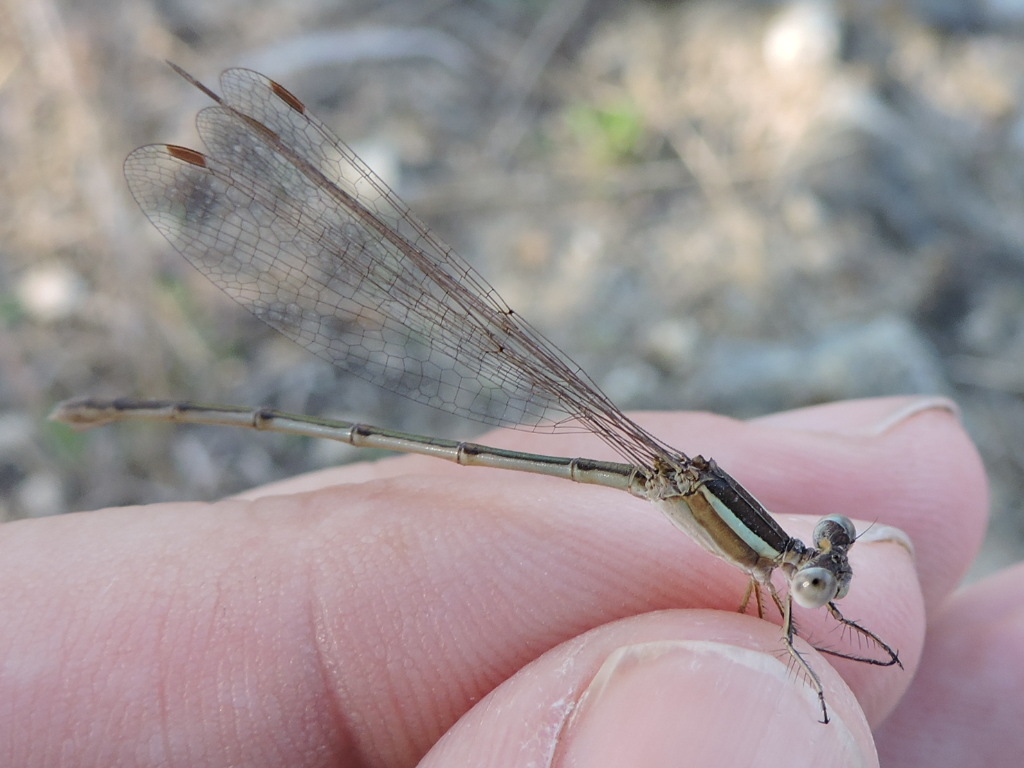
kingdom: Animalia
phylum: Arthropoda
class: Insecta
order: Odonata
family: Lestidae
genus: Lestes
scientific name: Lestes alacer
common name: Plateau spreadwing
